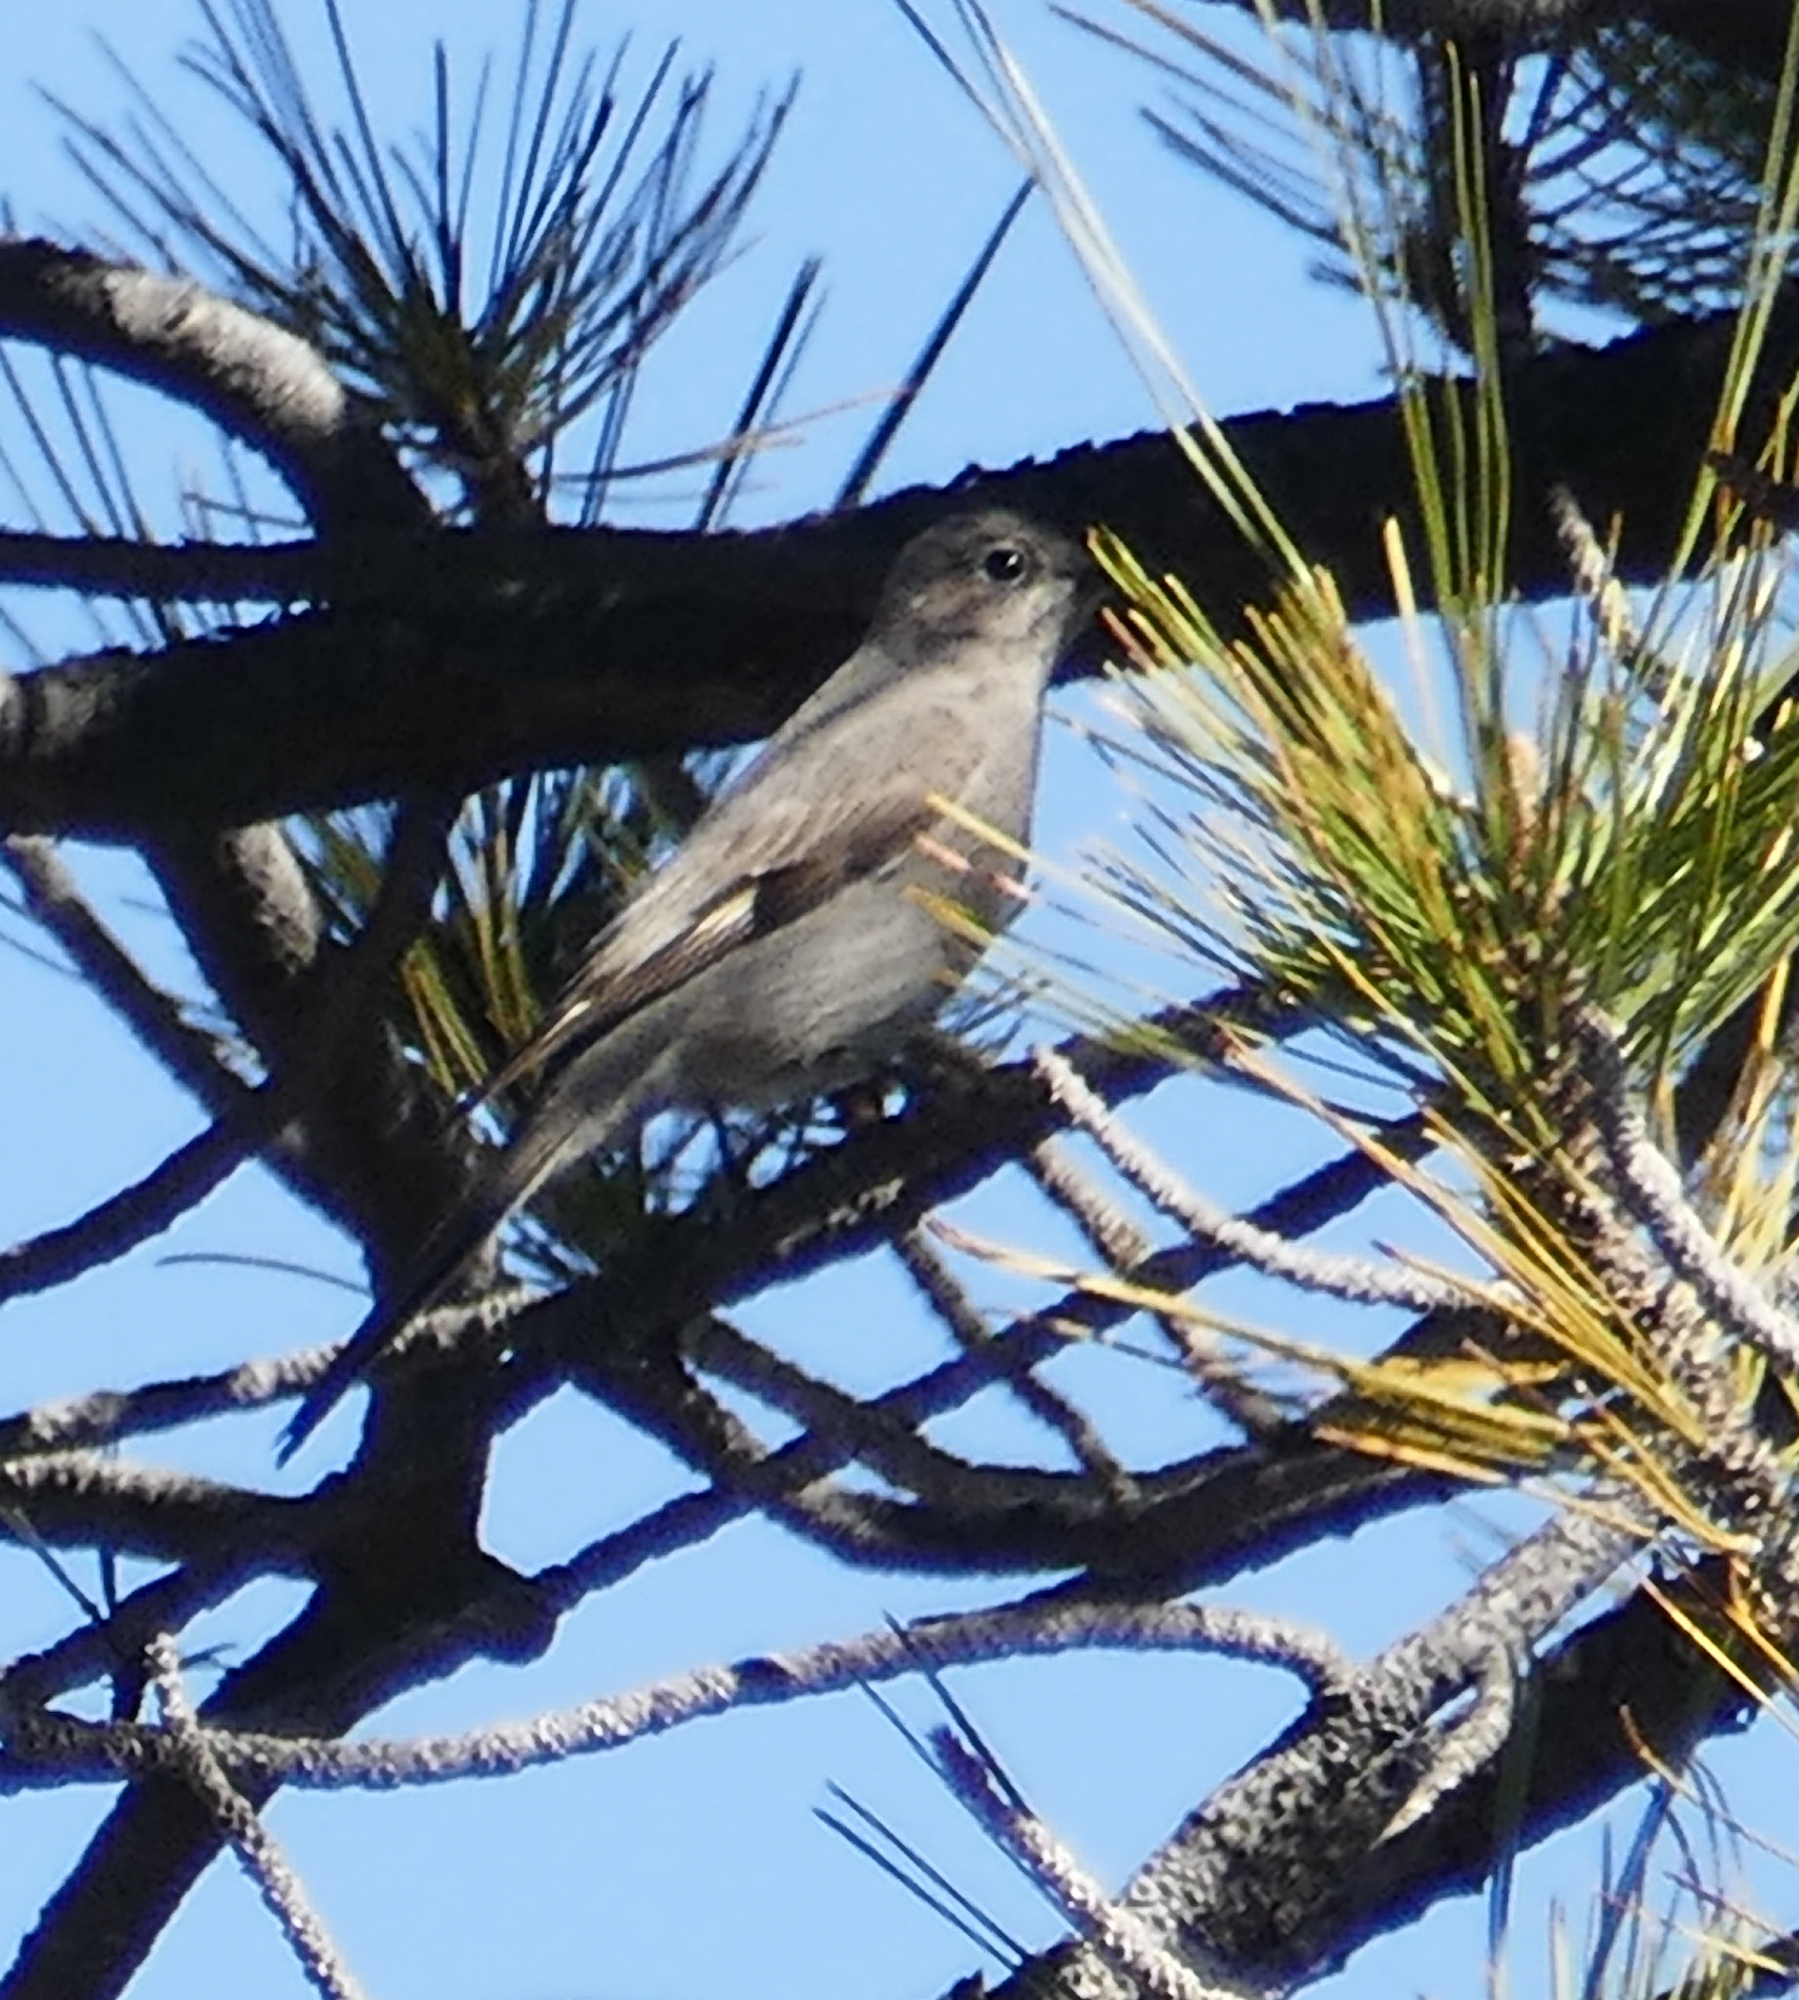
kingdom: Animalia
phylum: Chordata
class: Aves
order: Passeriformes
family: Turdidae
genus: Myadestes
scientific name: Myadestes townsendi
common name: Townsend's solitaire
